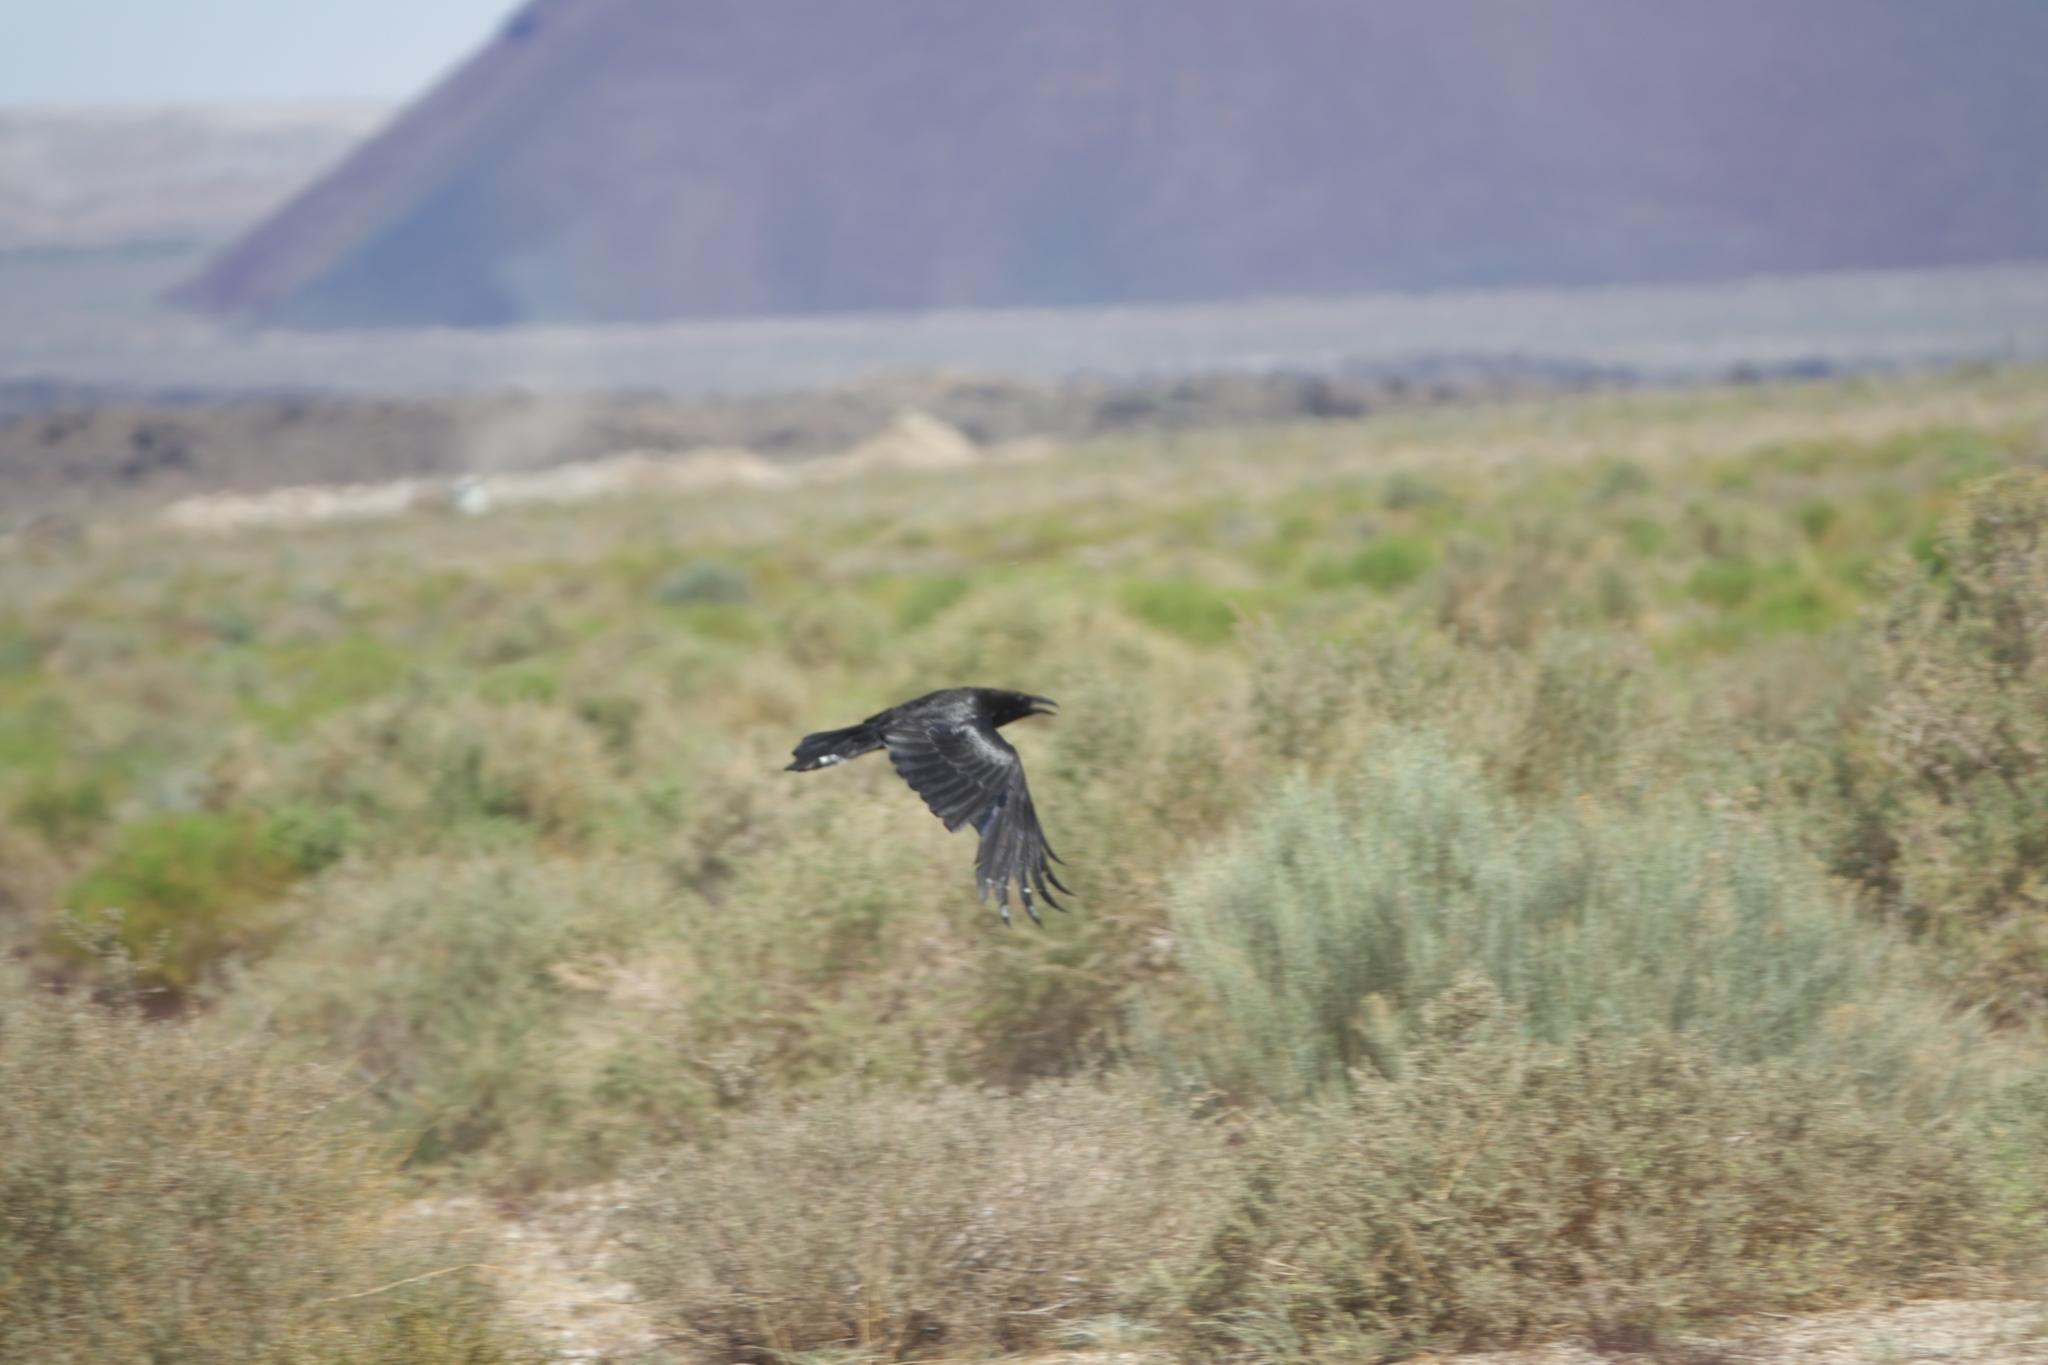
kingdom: Animalia
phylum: Chordata
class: Aves
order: Passeriformes
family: Corvidae
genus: Corvus
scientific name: Corvus brachyrhynchos
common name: American crow
